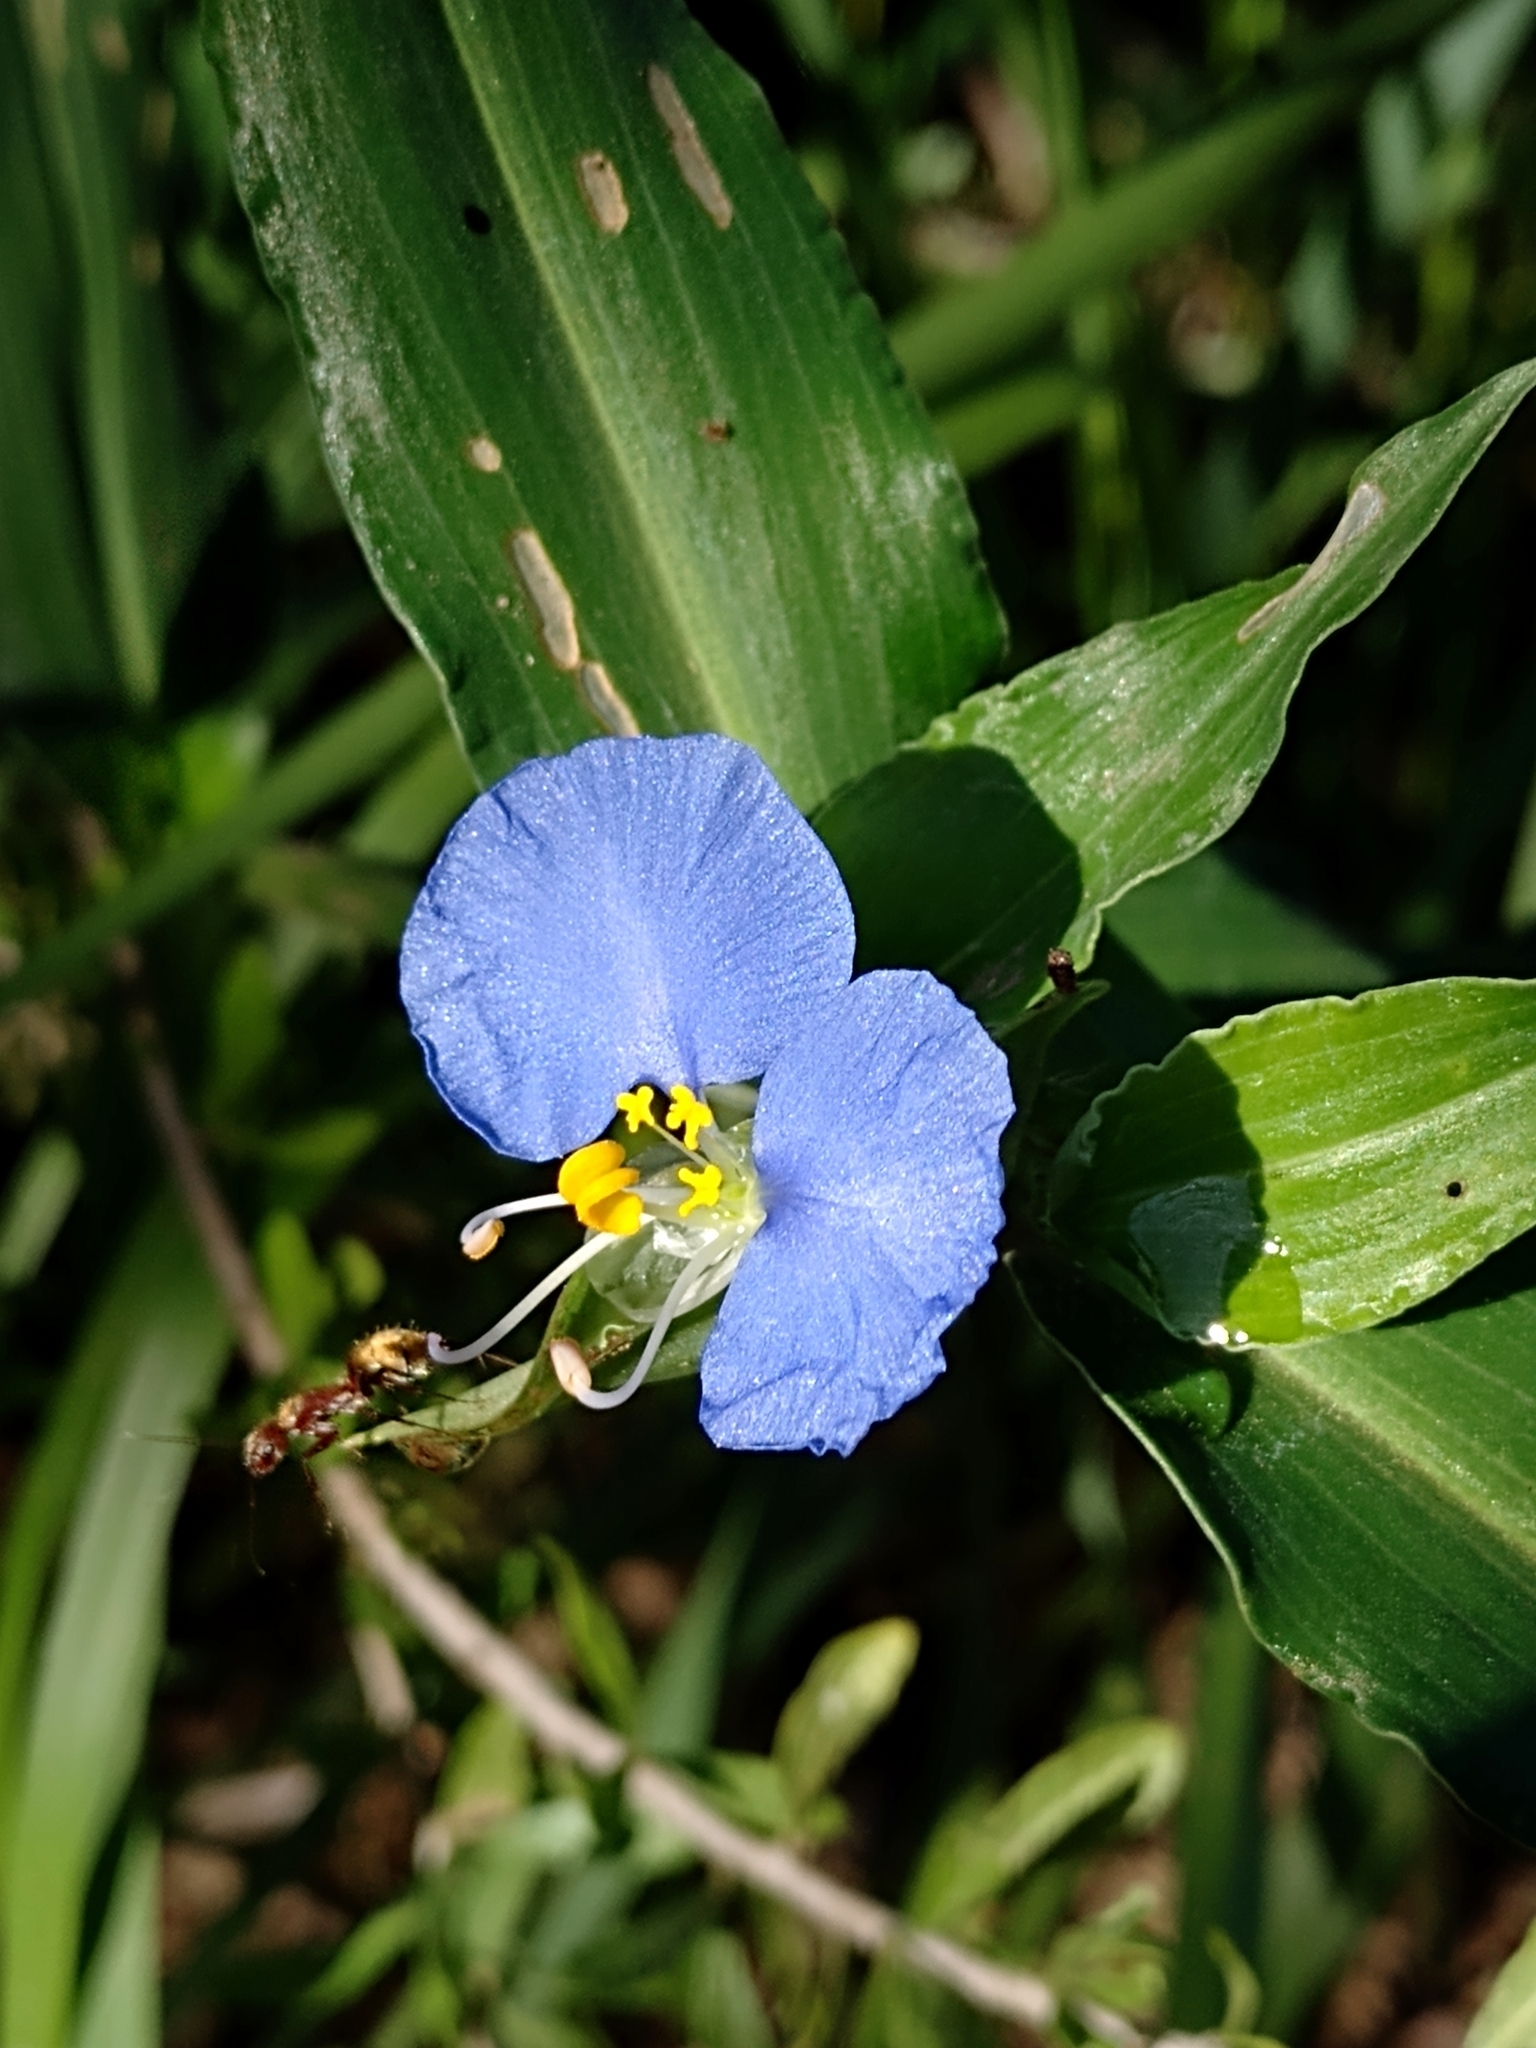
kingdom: Plantae
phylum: Tracheophyta
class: Liliopsida
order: Commelinales
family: Commelinaceae
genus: Commelina
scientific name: Commelina erecta
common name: Blousel blommetjie
